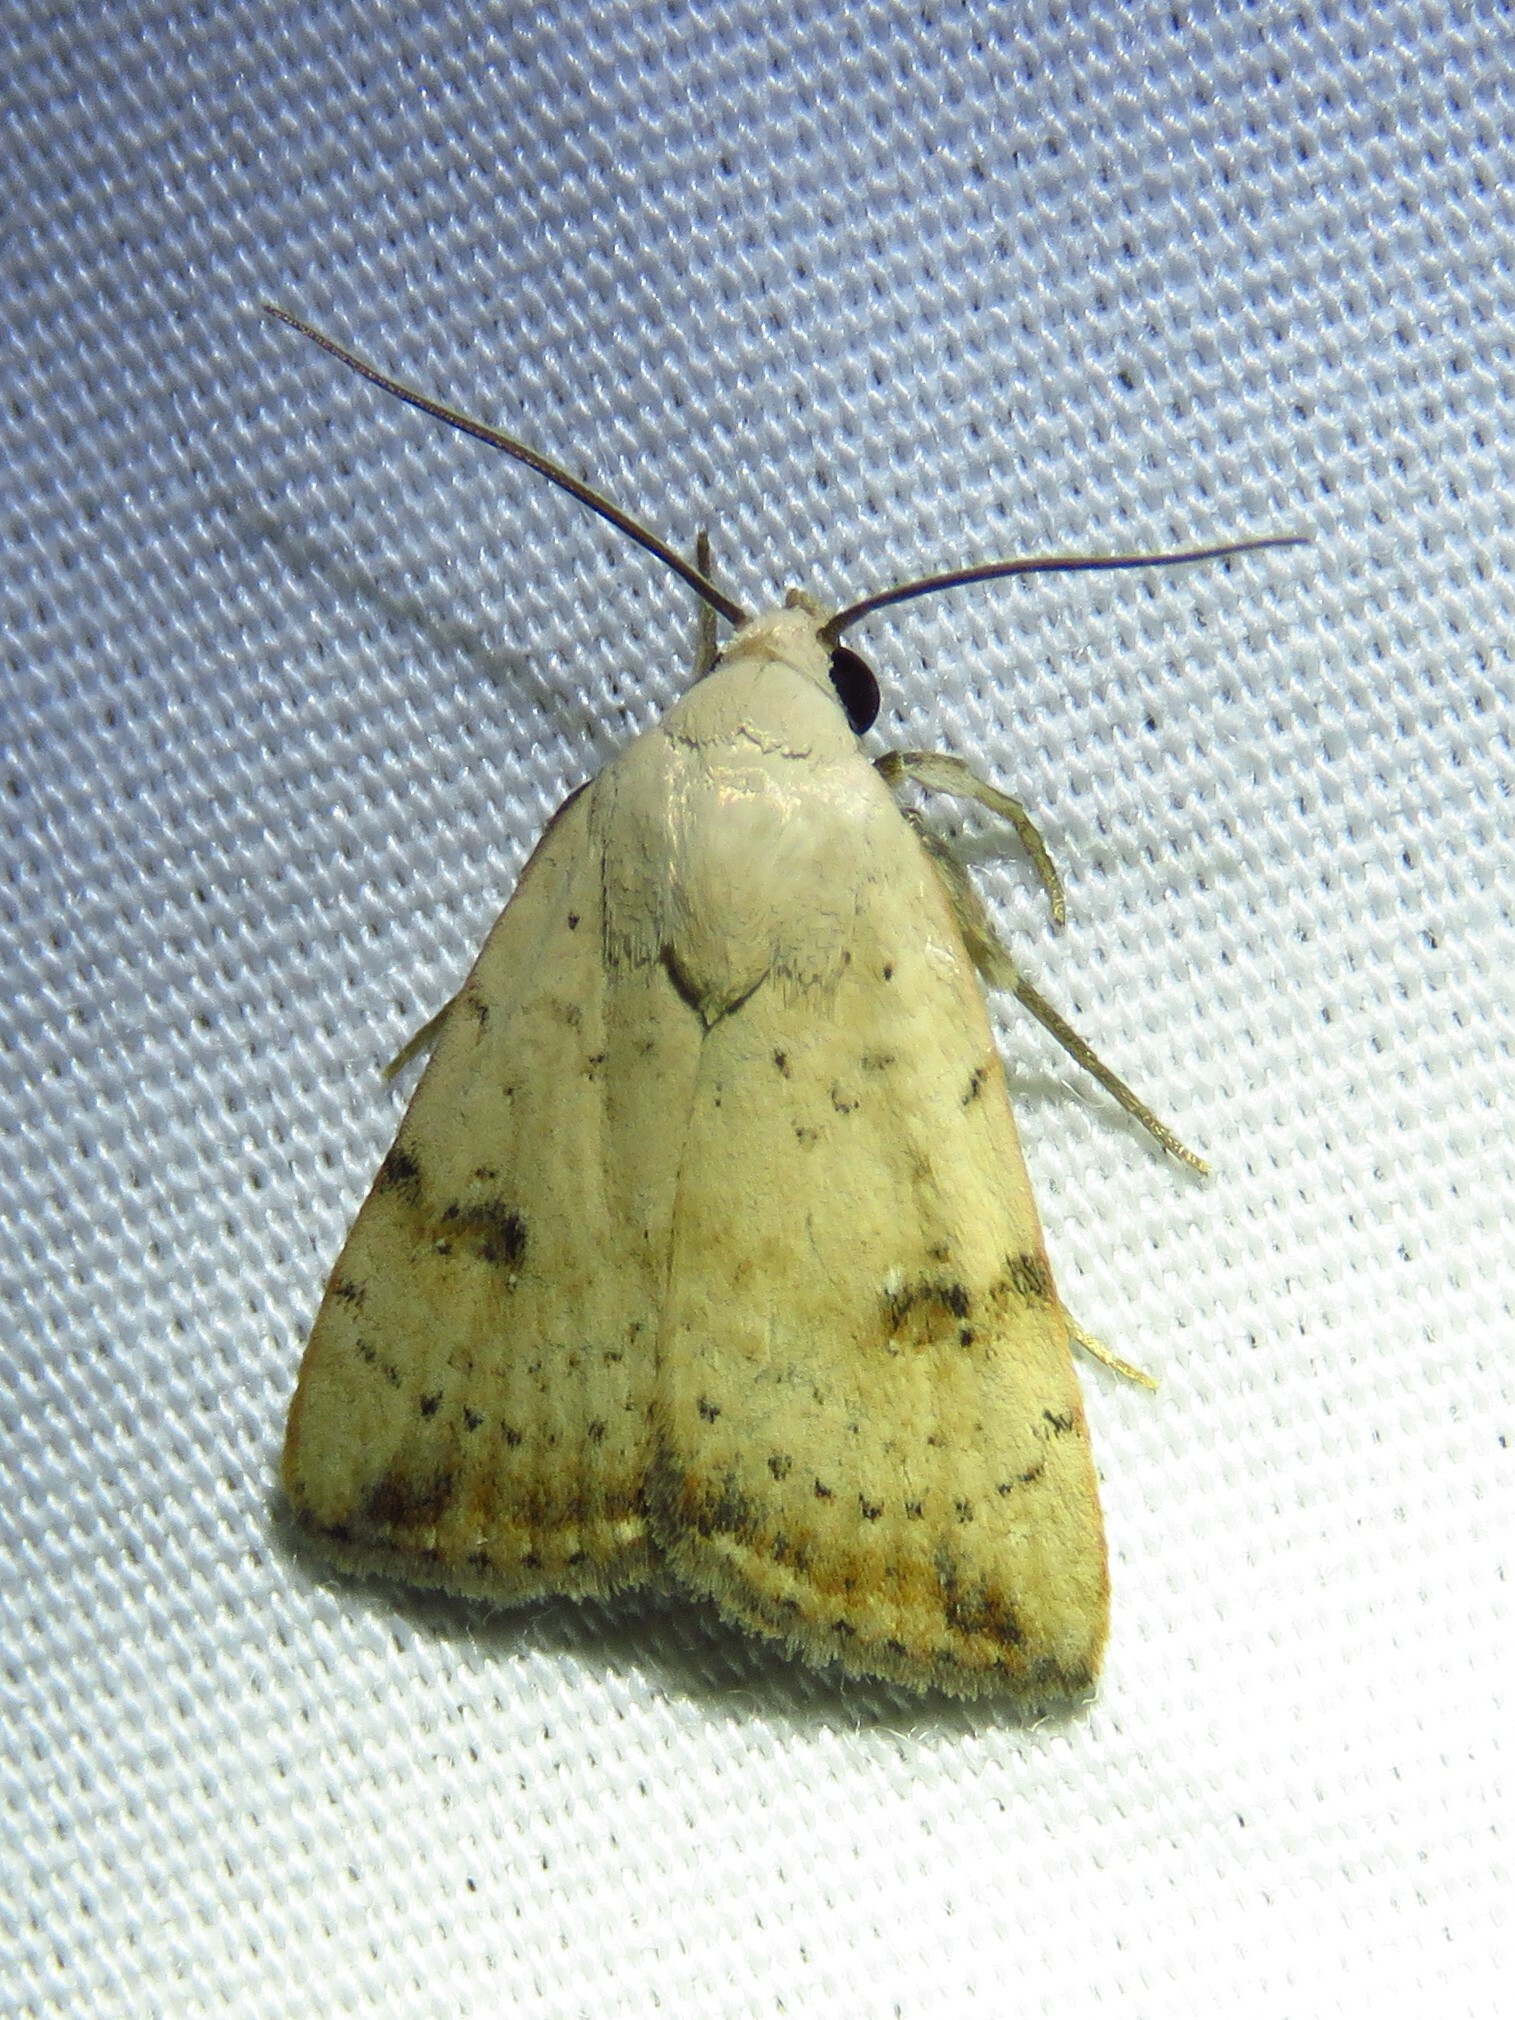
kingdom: Animalia
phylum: Arthropoda
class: Insecta
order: Lepidoptera
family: Noctuidae
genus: Micrathetis
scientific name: Micrathetis triplex
